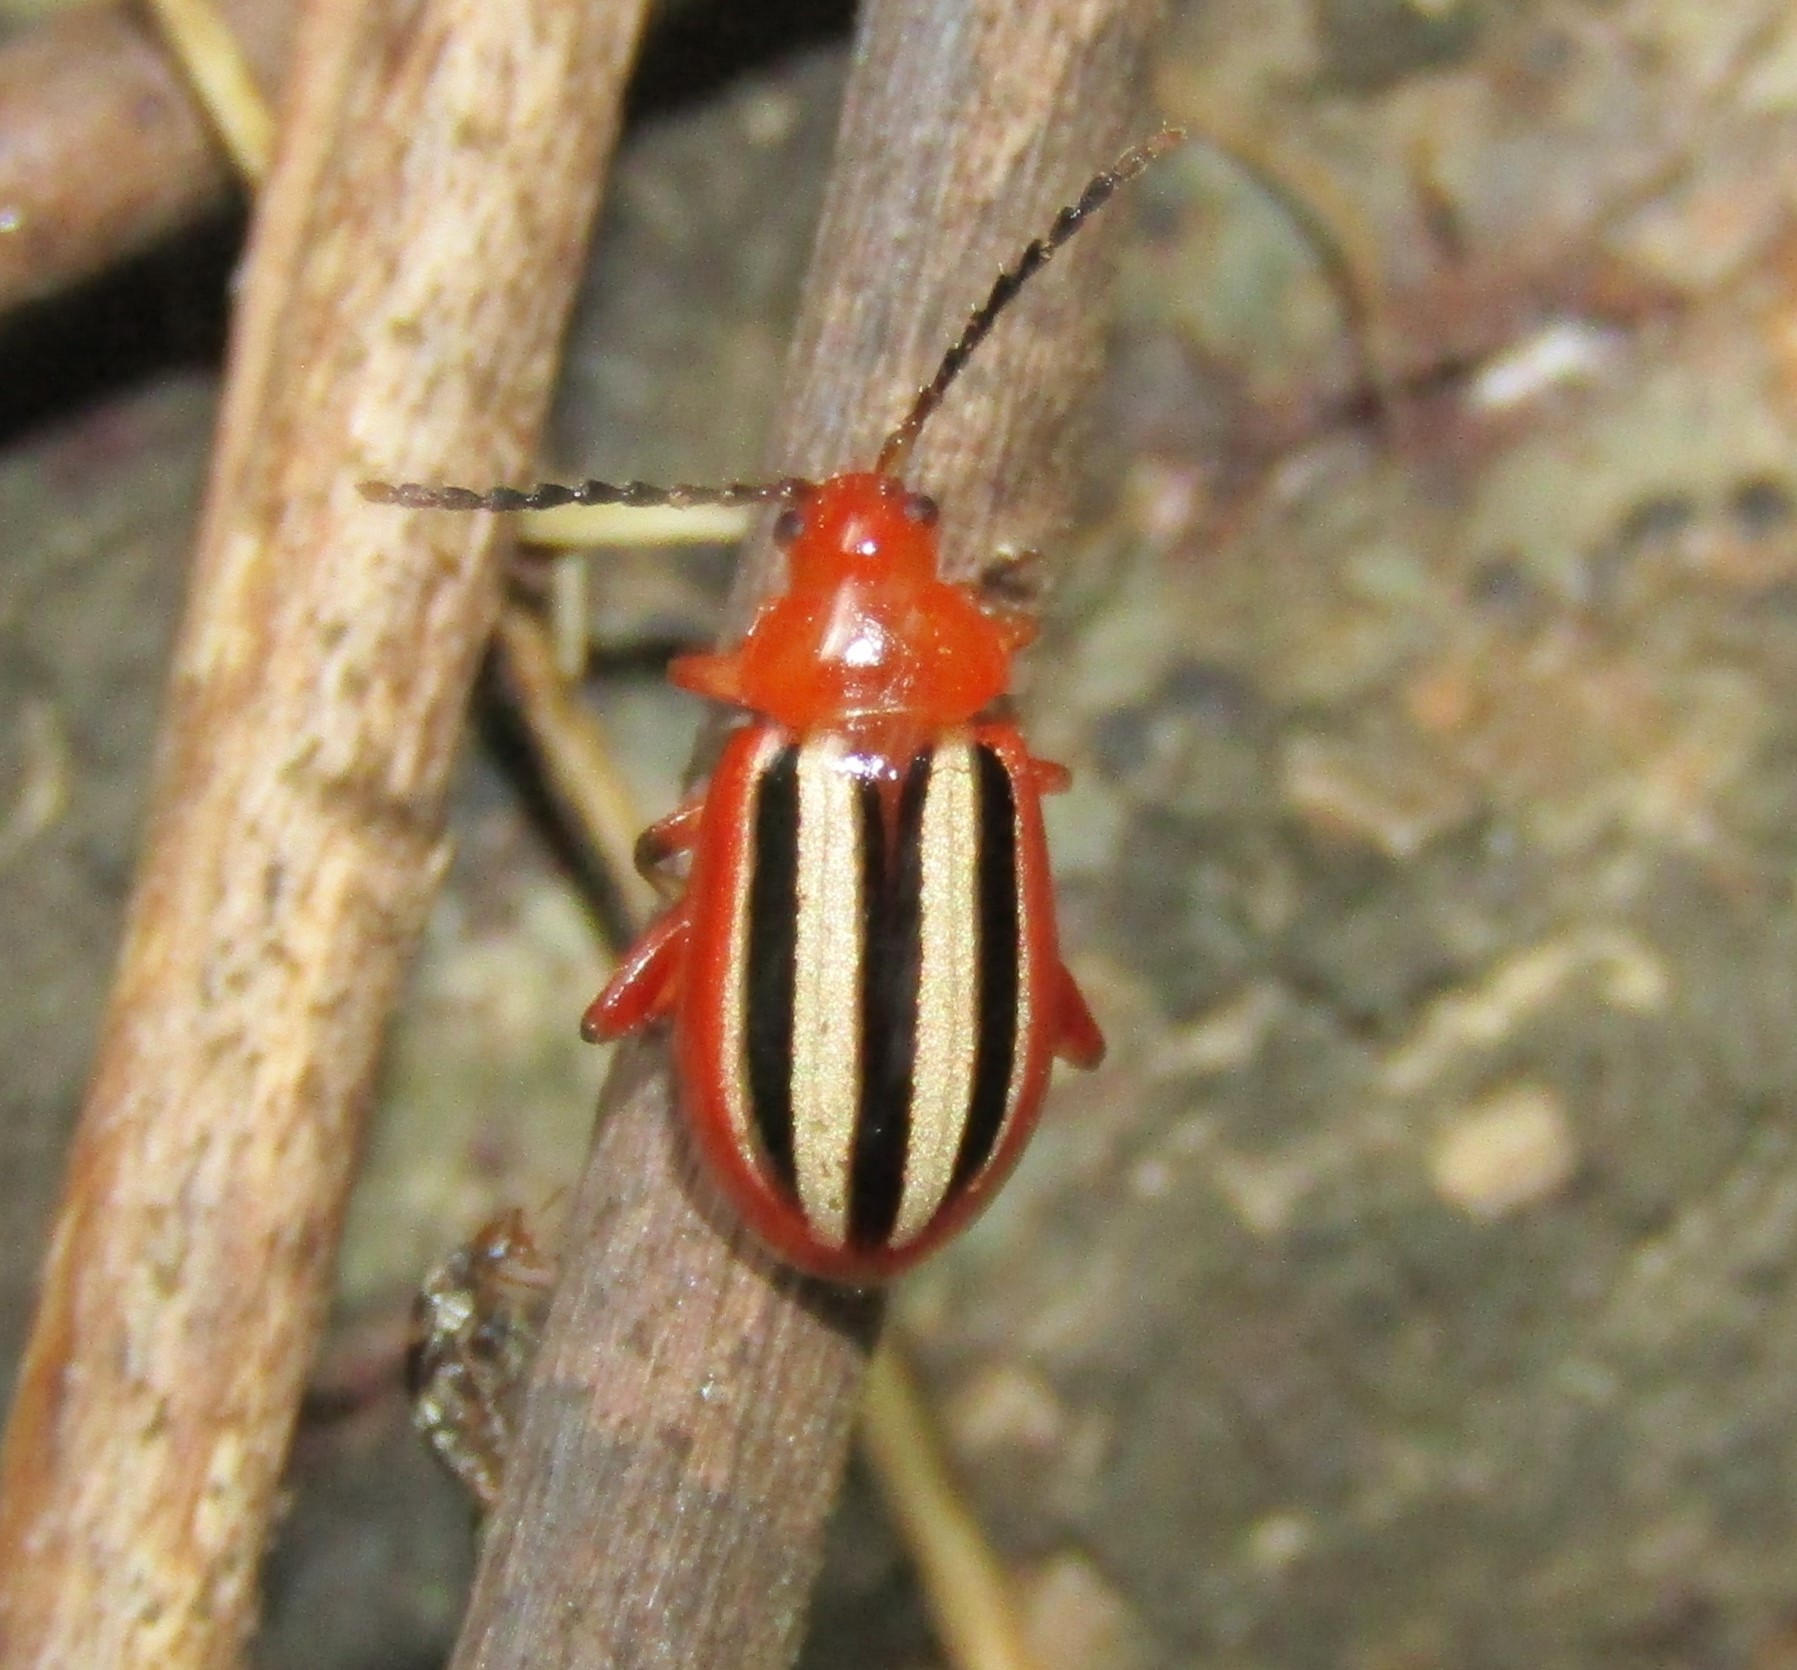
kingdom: Animalia
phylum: Arthropoda
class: Insecta
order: Coleoptera
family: Chrysomelidae
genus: Disonycha
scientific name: Disonycha discoidea
